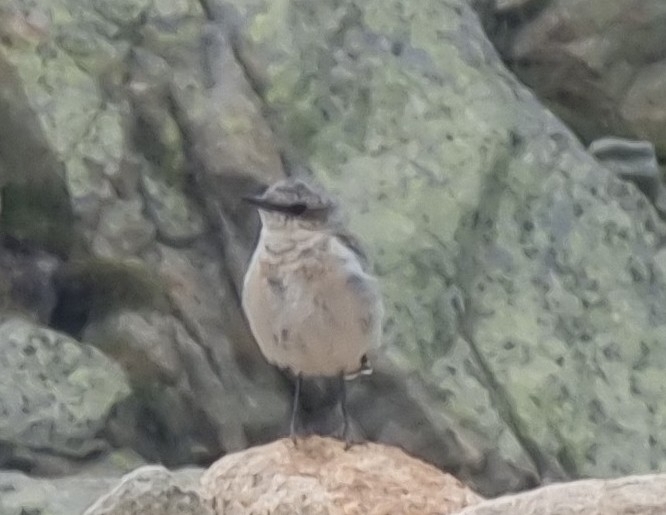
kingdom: Animalia
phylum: Chordata
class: Aves
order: Passeriformes
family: Muscicapidae
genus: Oenanthe
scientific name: Oenanthe oenanthe
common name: Northern wheatear
